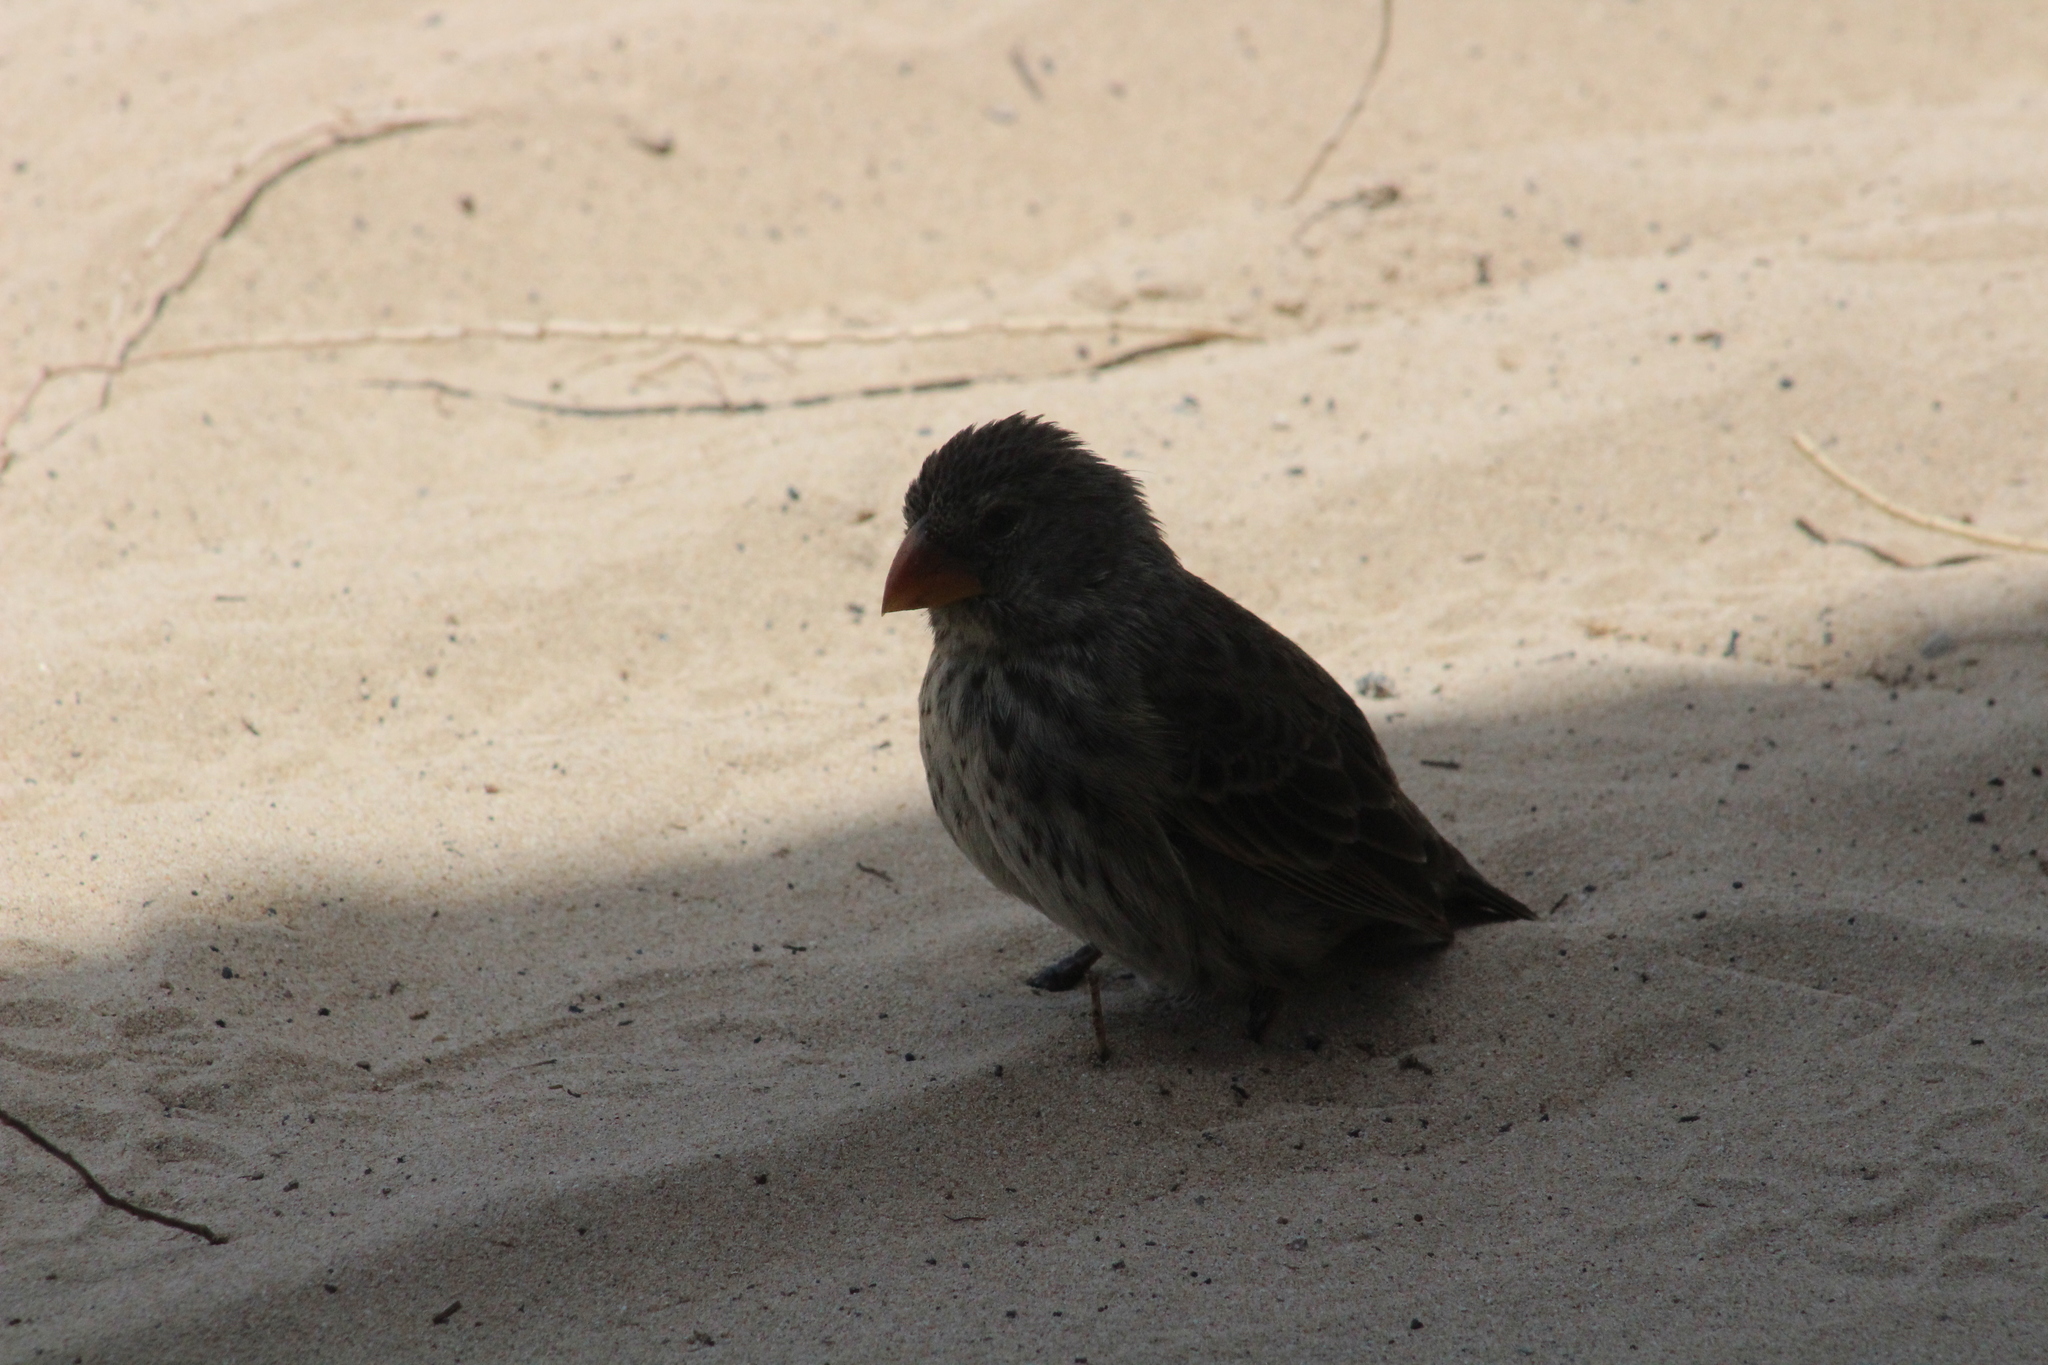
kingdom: Animalia
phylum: Chordata
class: Aves
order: Passeriformes
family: Thraupidae
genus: Geospiza
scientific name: Geospiza fortis
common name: Medium ground finch
